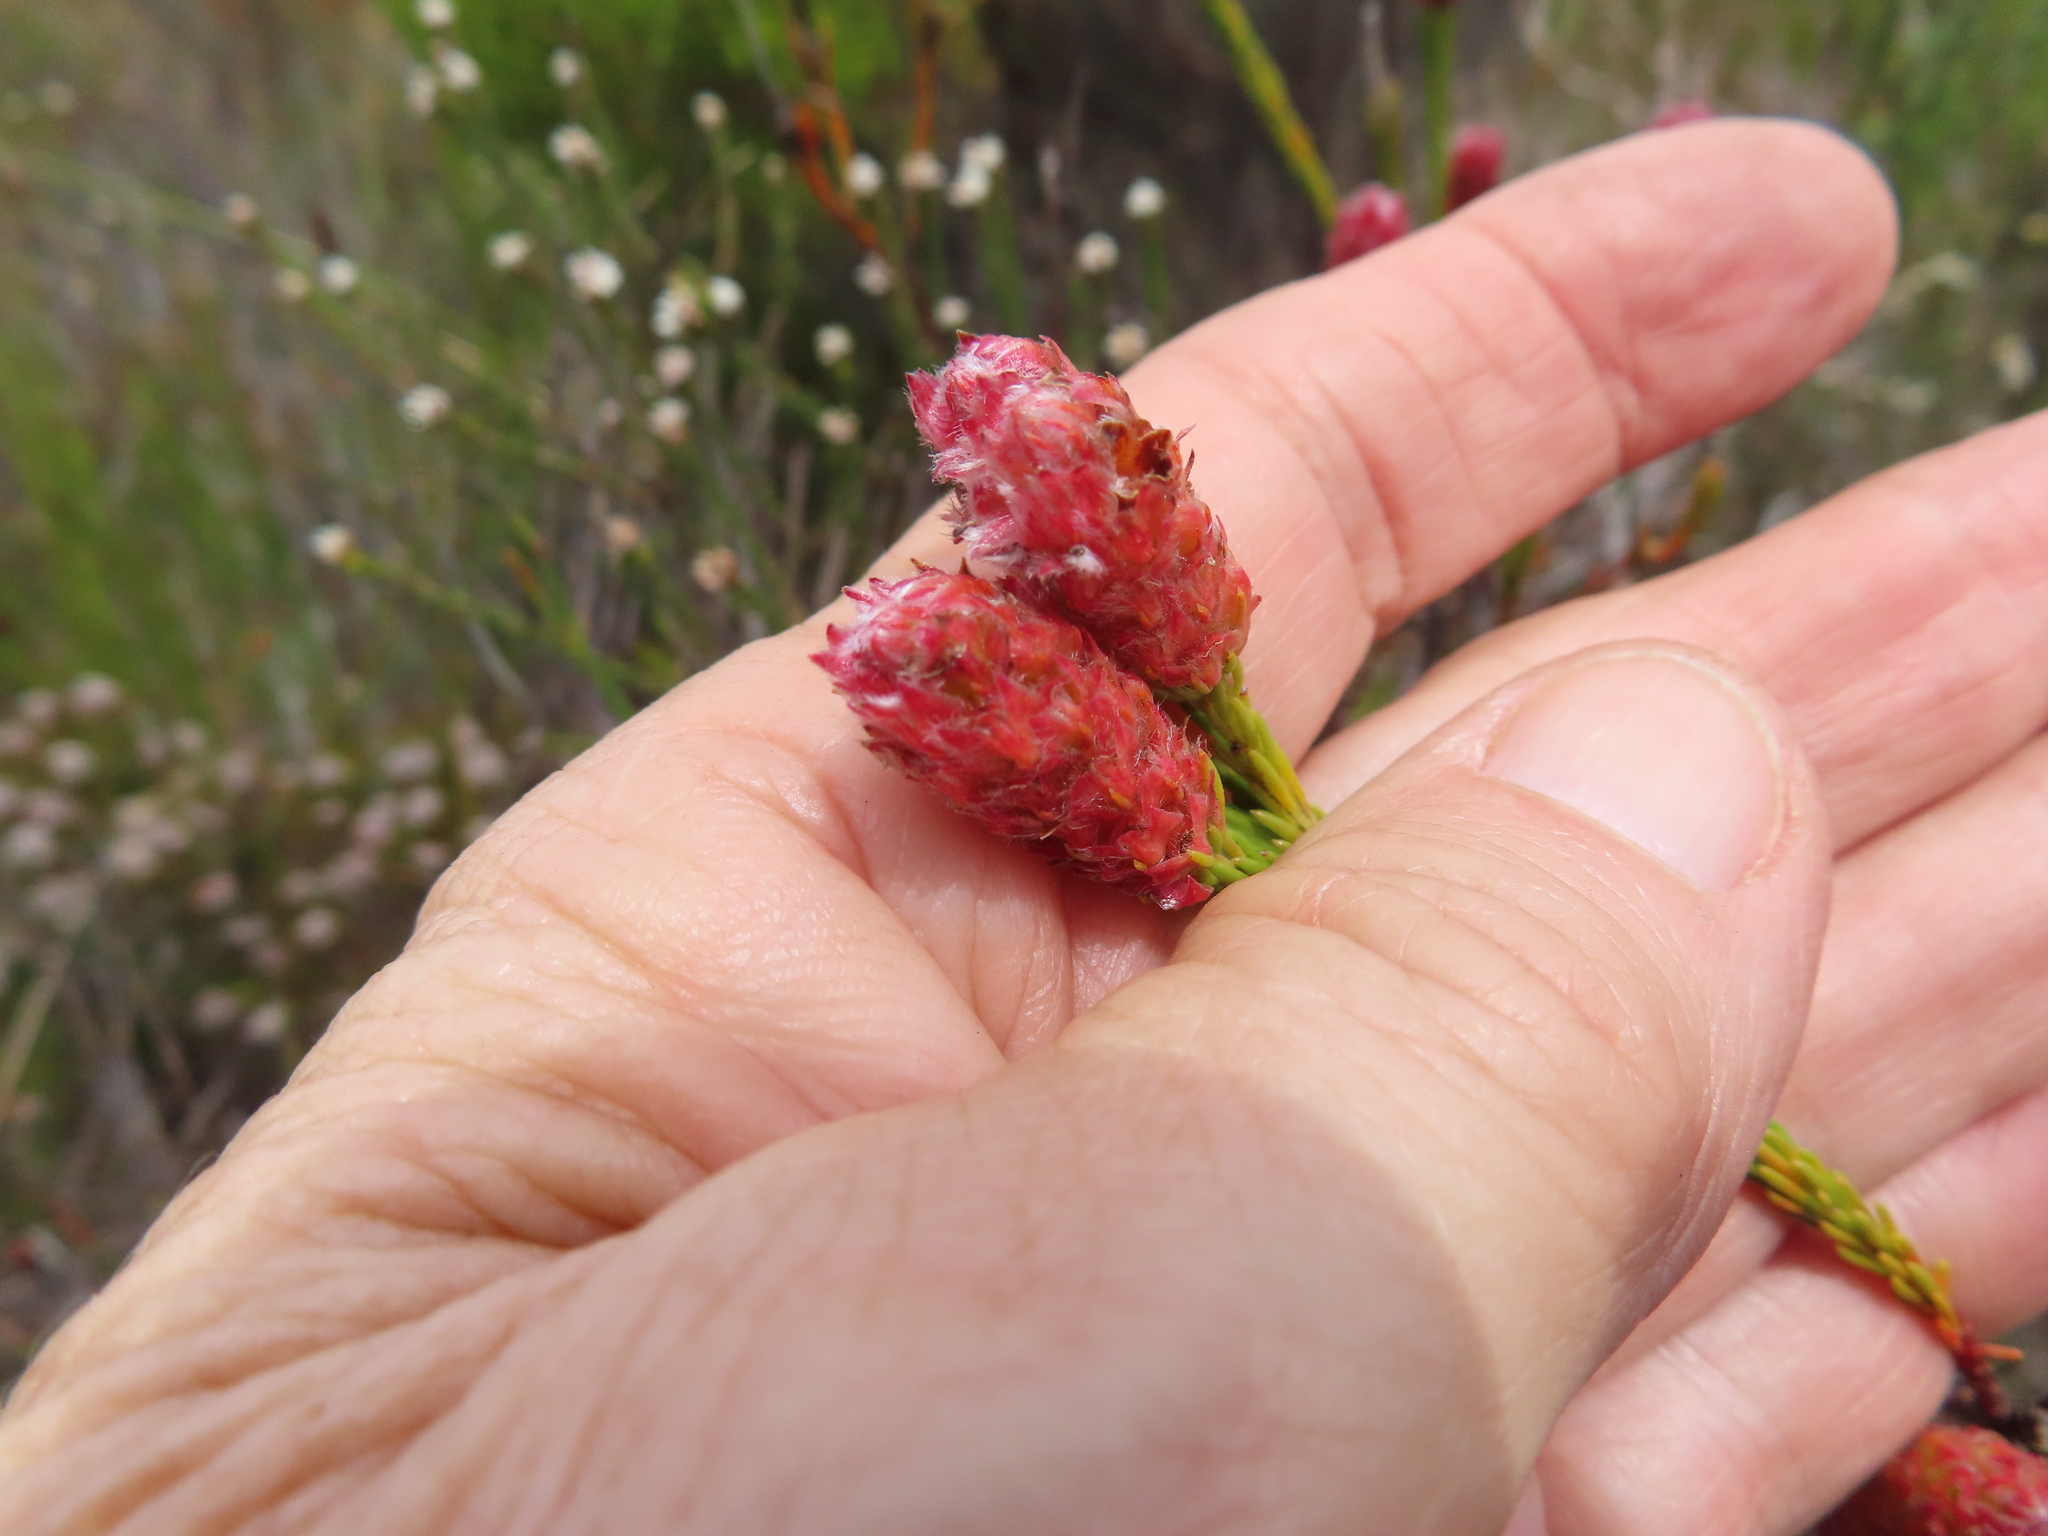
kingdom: Plantae
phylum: Tracheophyta
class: Magnoliopsida
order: Proteales
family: Proteaceae
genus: Spatalla
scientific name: Spatalla ericoides
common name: Erica-leaf spoon
